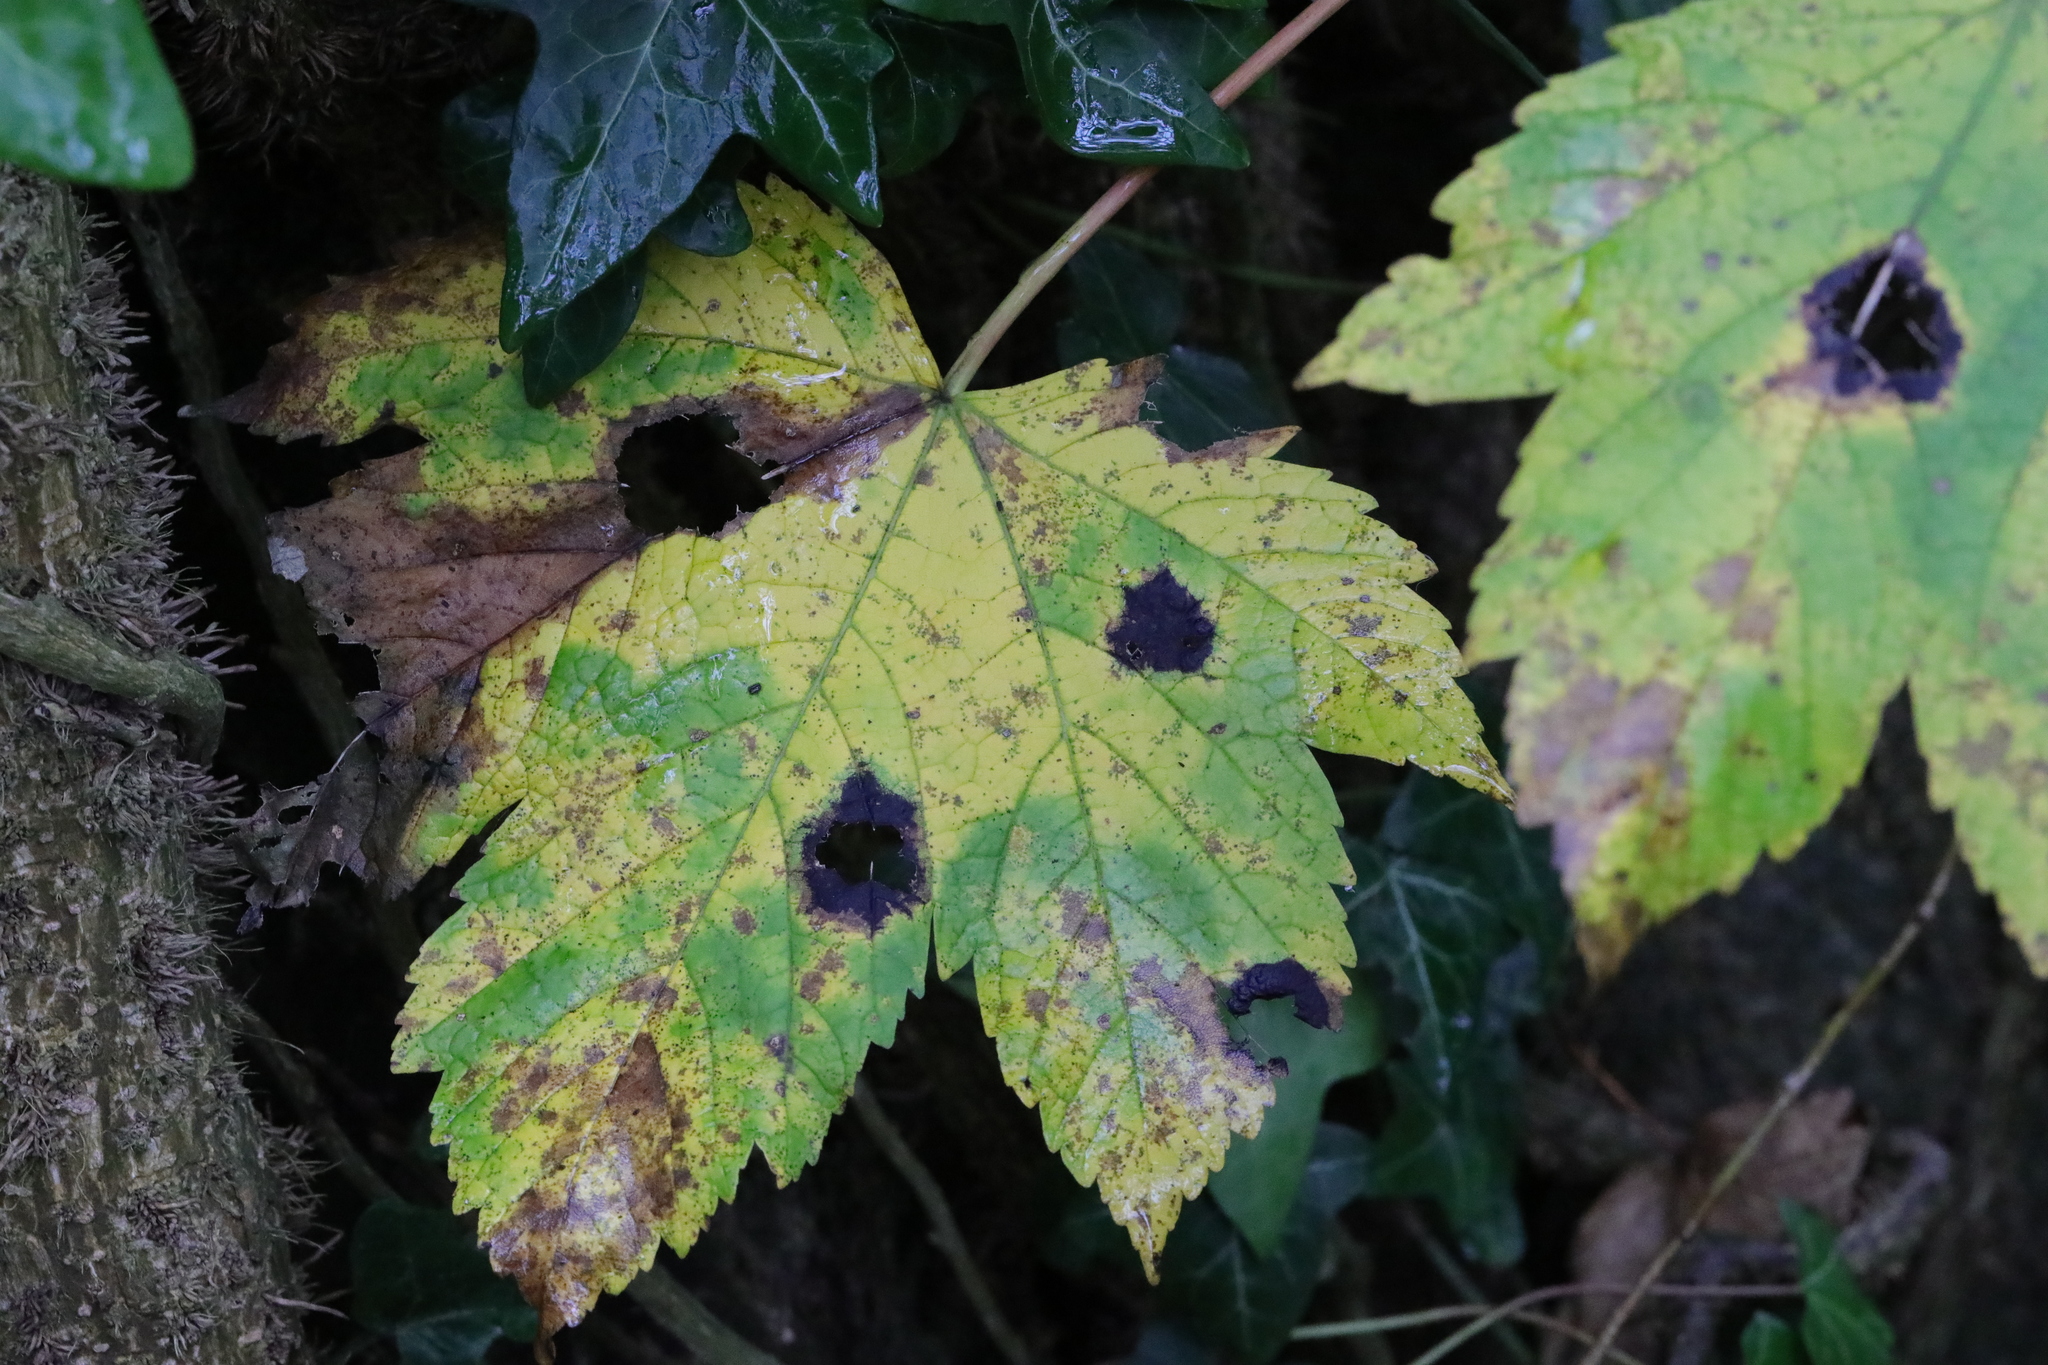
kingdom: Fungi
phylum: Ascomycota
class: Leotiomycetes
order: Rhytismatales
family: Rhytismataceae
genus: Rhytisma
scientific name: Rhytisma acerinum
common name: European tar spot
